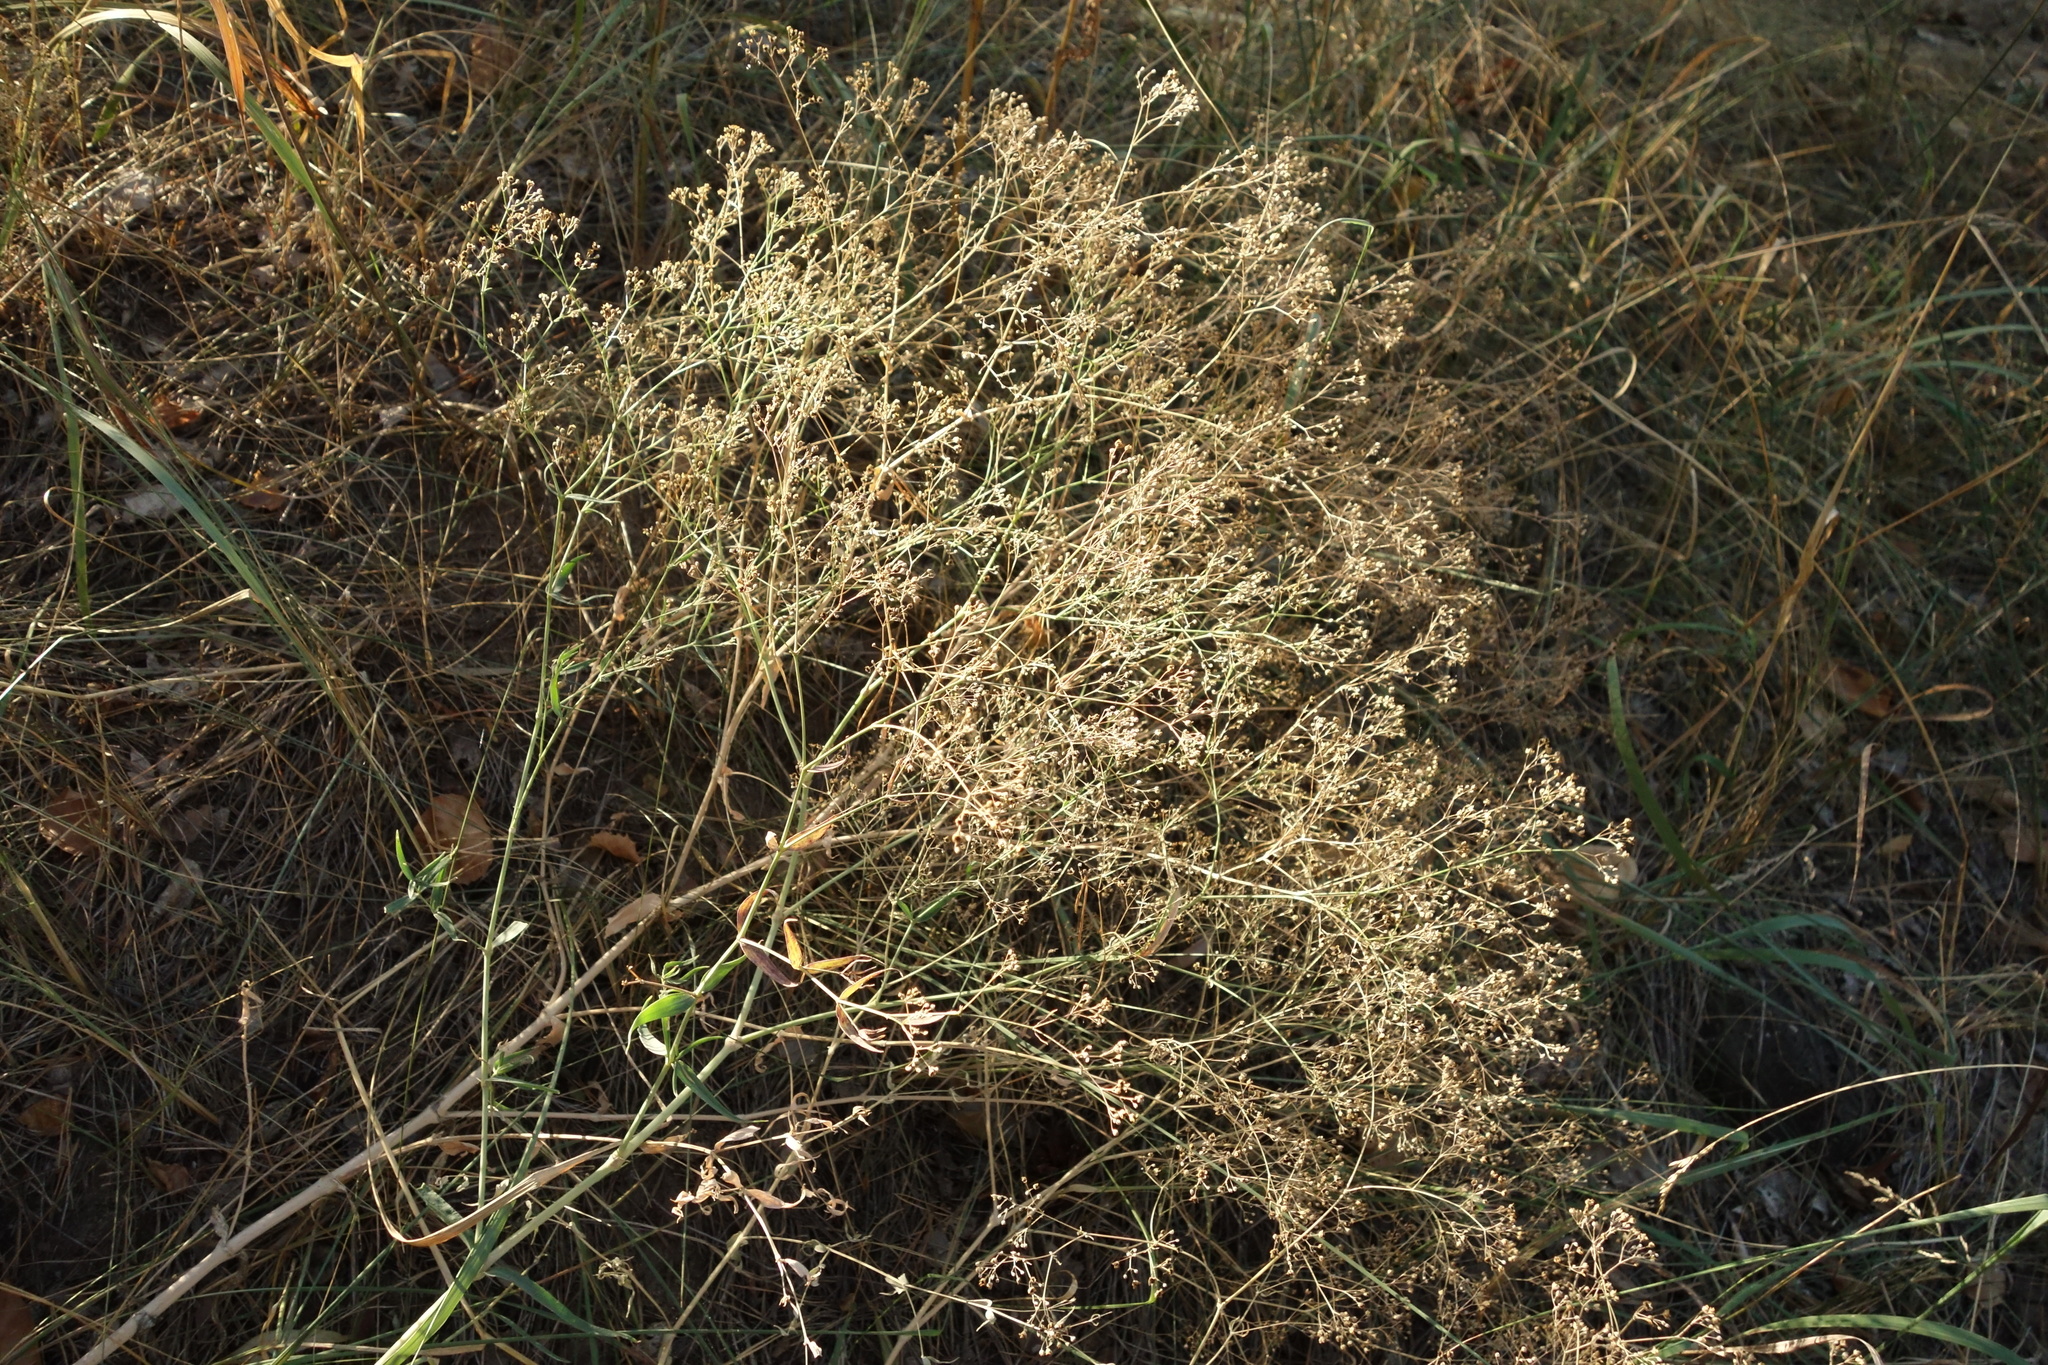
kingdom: Plantae
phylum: Tracheophyta
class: Magnoliopsida
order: Caryophyllales
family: Caryophyllaceae
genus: Gypsophila
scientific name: Gypsophila paniculata
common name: Baby's-breath
